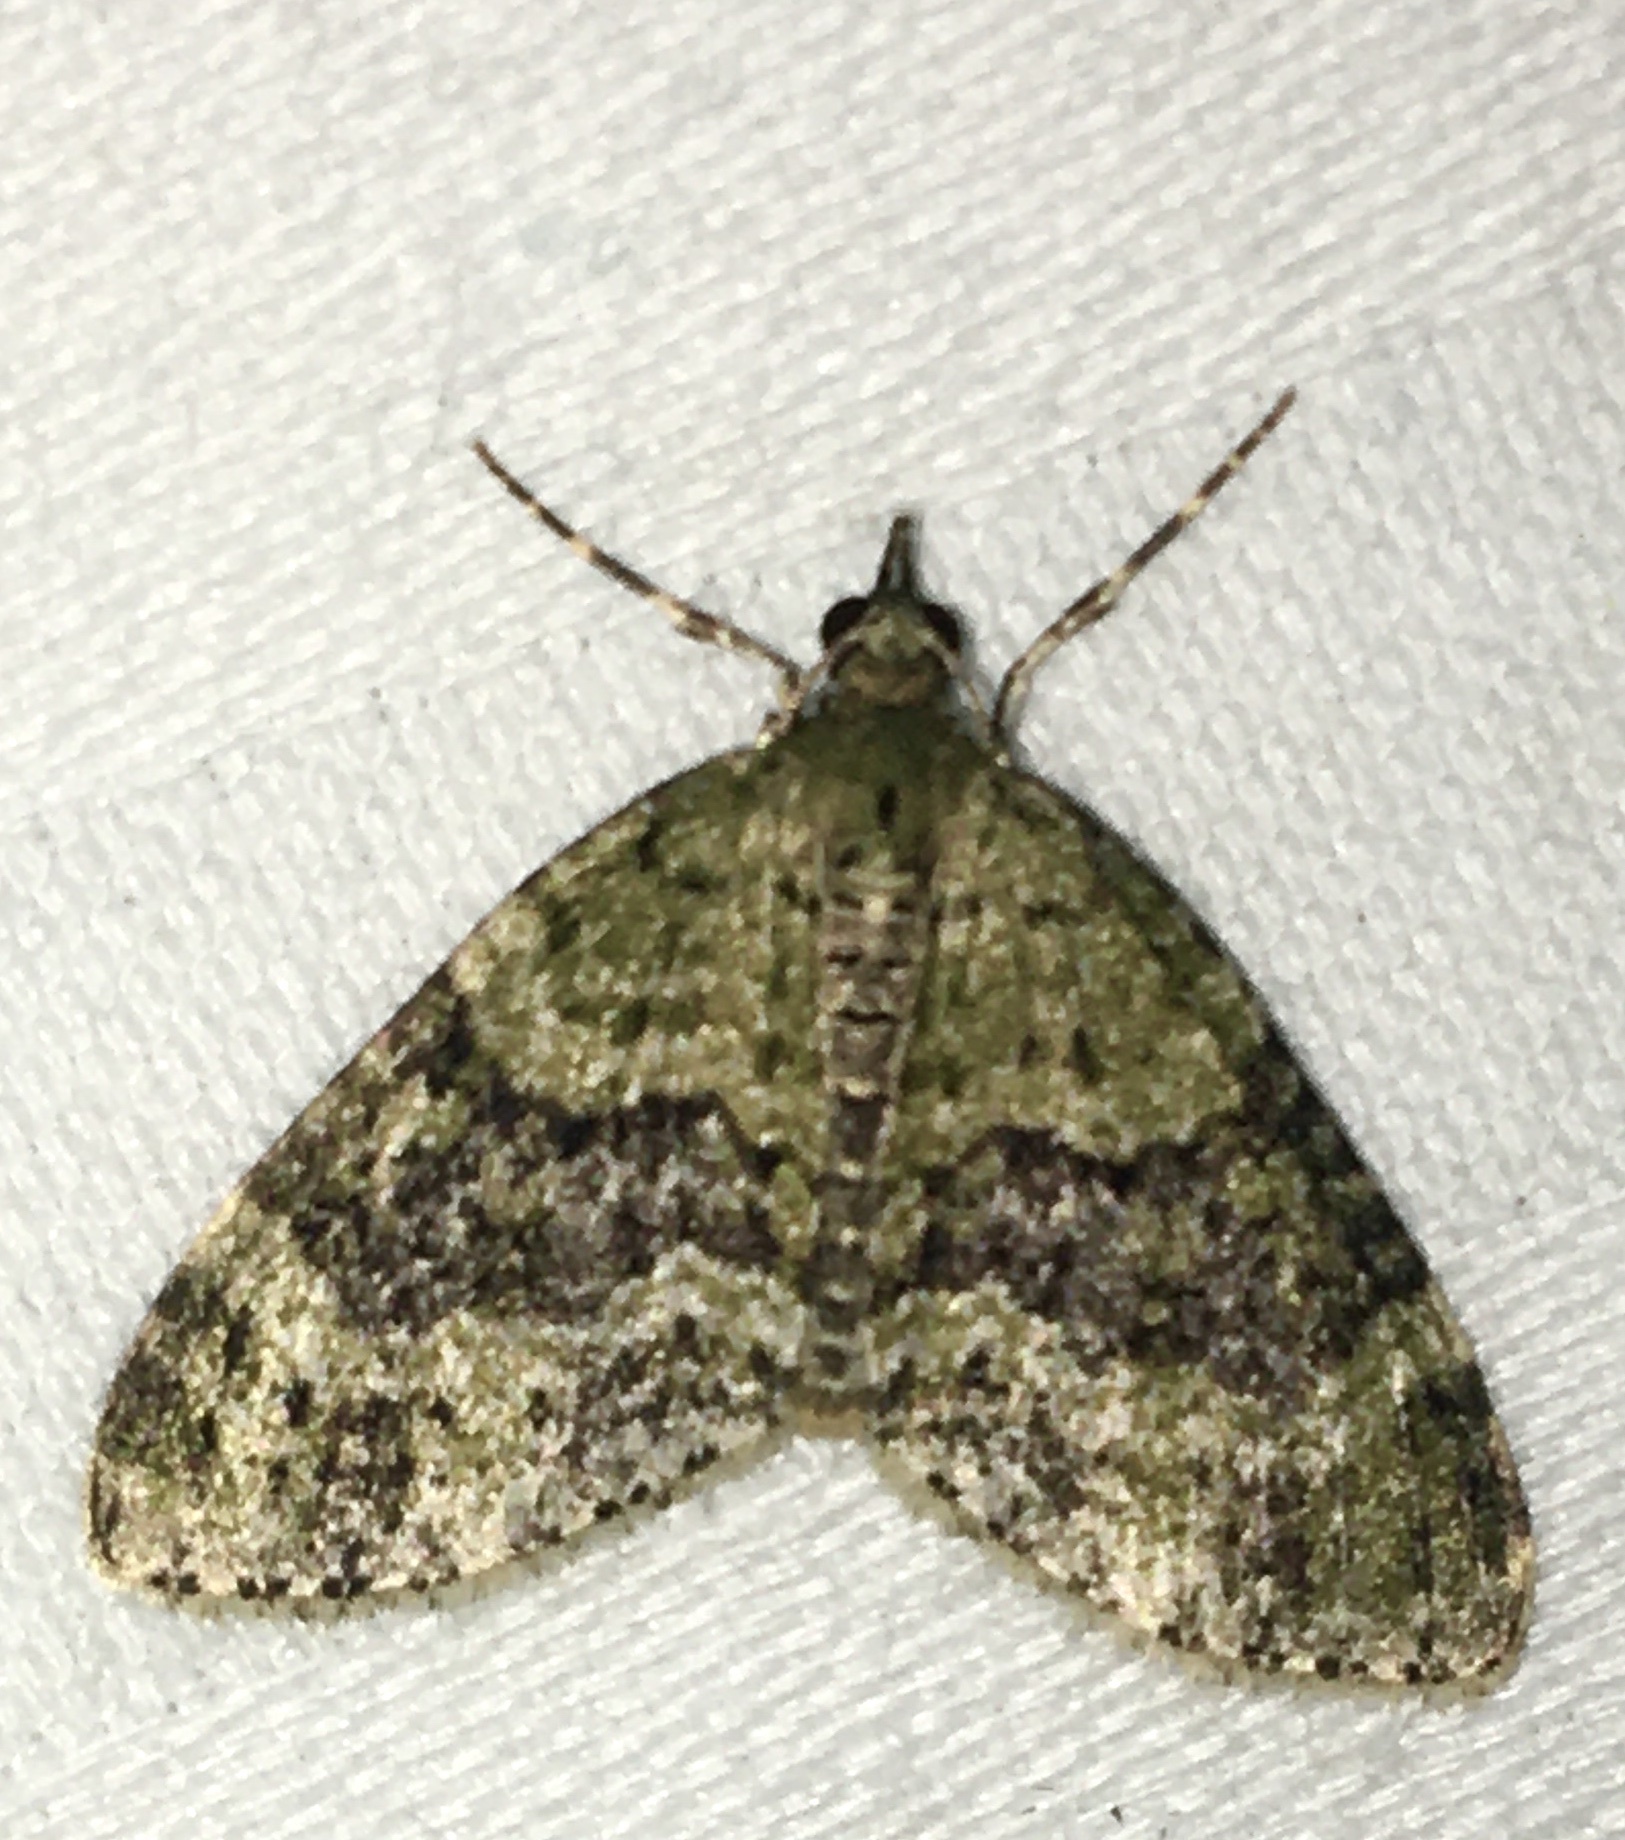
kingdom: Animalia
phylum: Arthropoda
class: Insecta
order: Lepidoptera
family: Geometridae
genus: Acasis
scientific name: Acasis viretata
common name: Yellow-barred brindle
